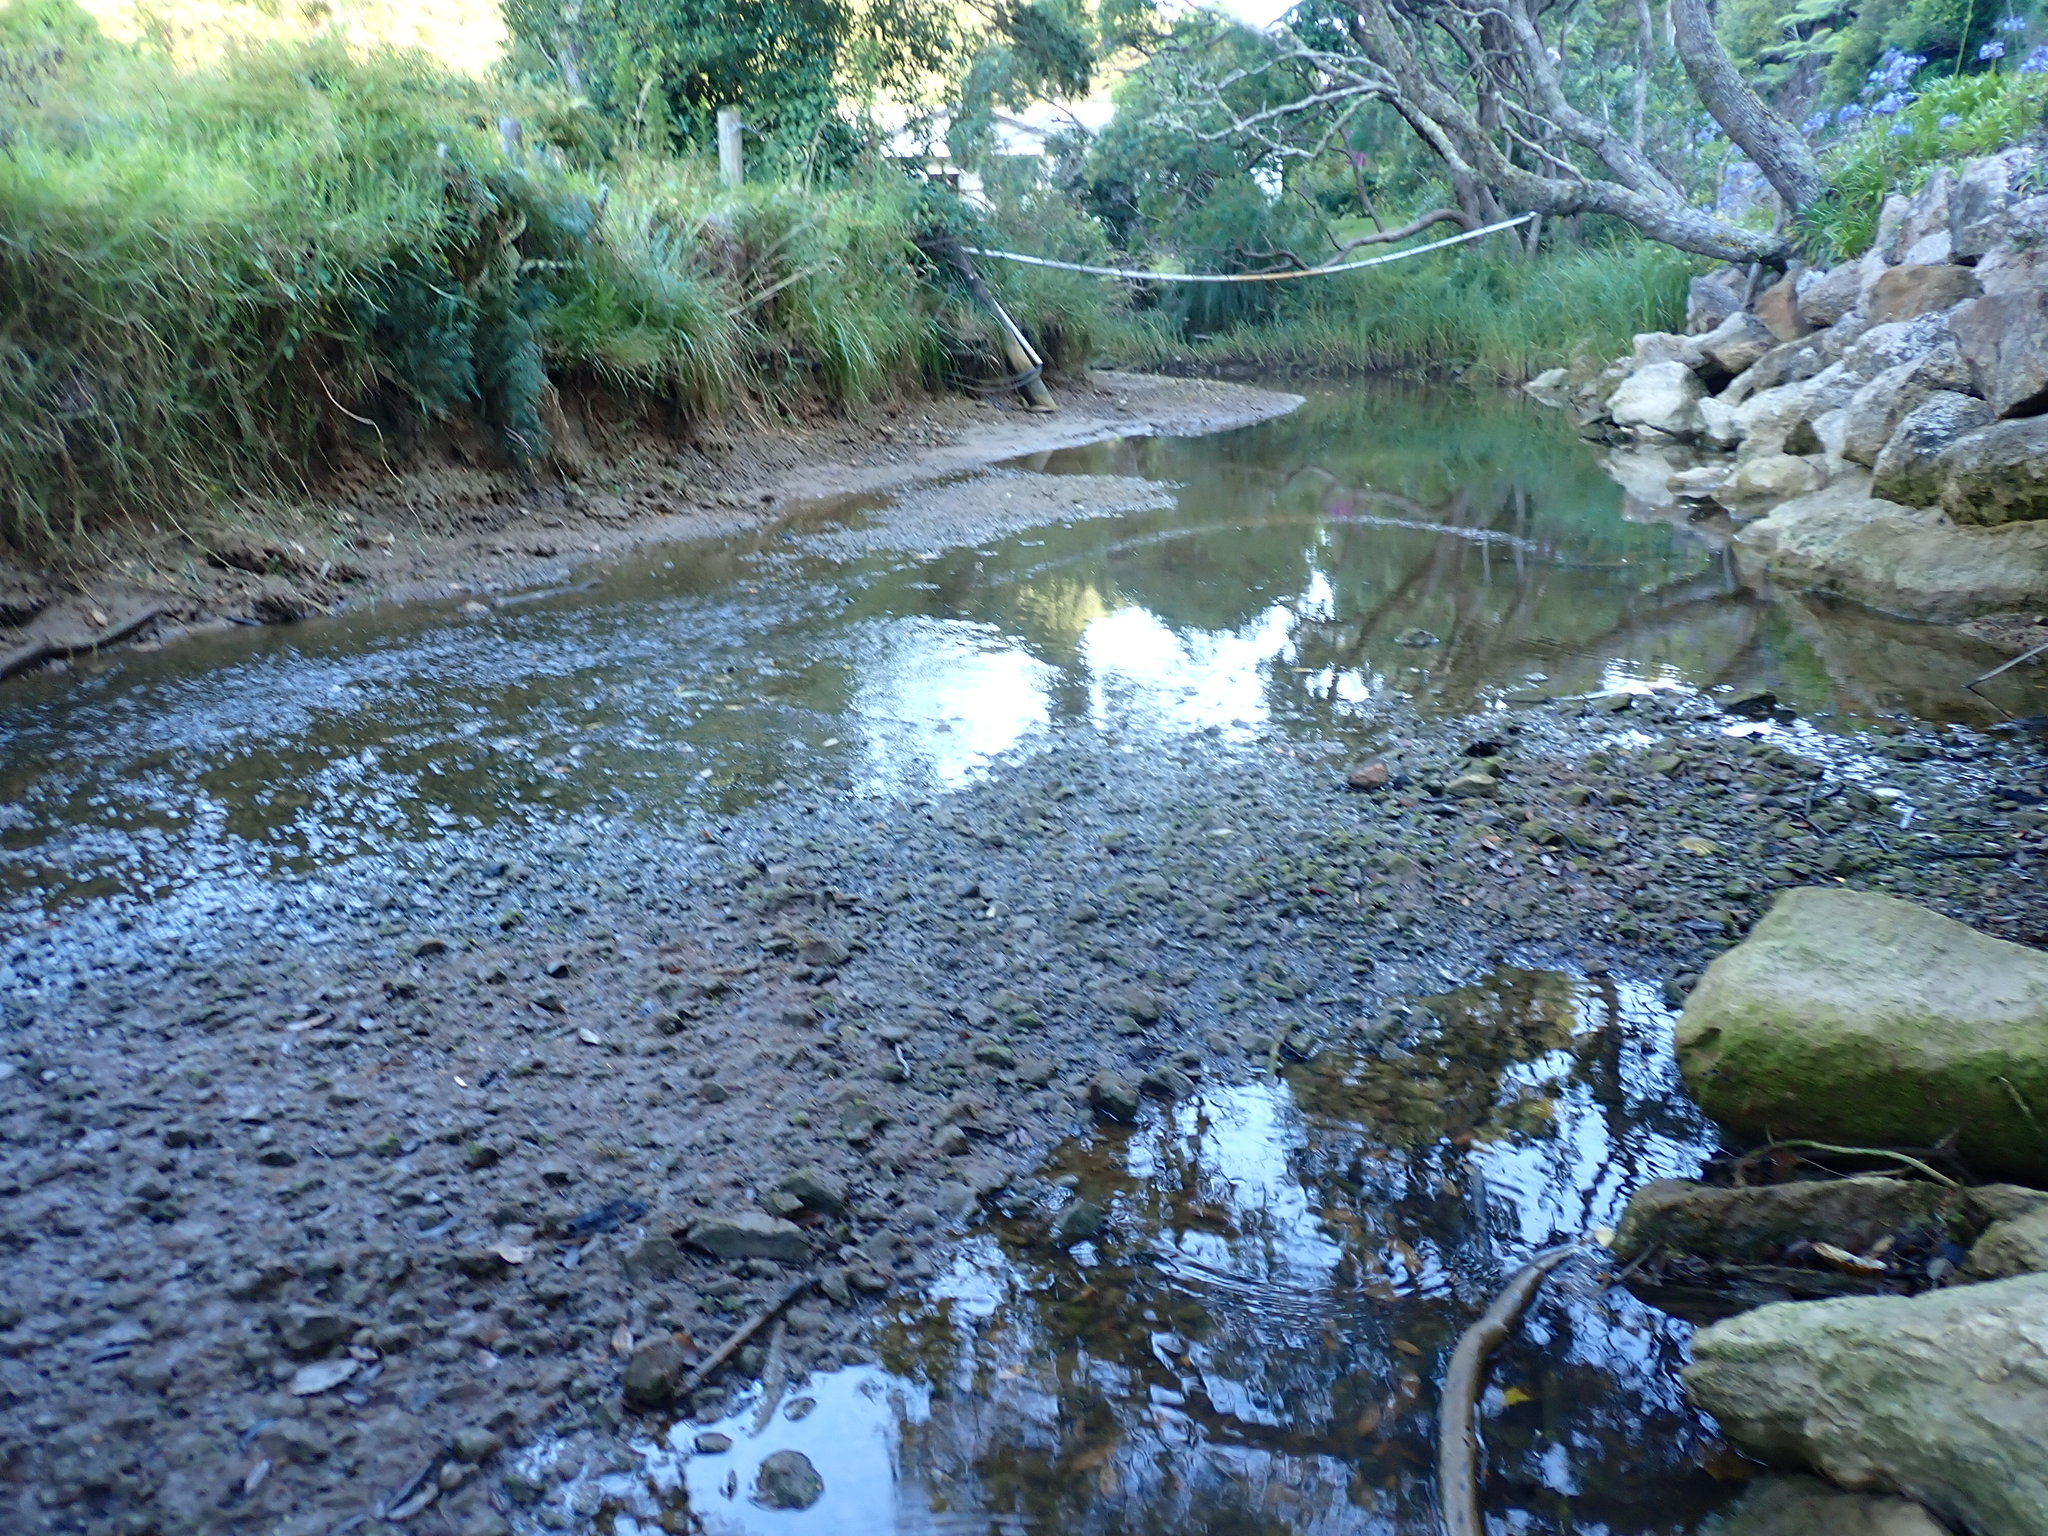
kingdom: Plantae
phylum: Chlorophyta
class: Ulvophyceae
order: Ulvales
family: Ulvaceae
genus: Ulva
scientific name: Ulva compressa
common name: Thread weed
